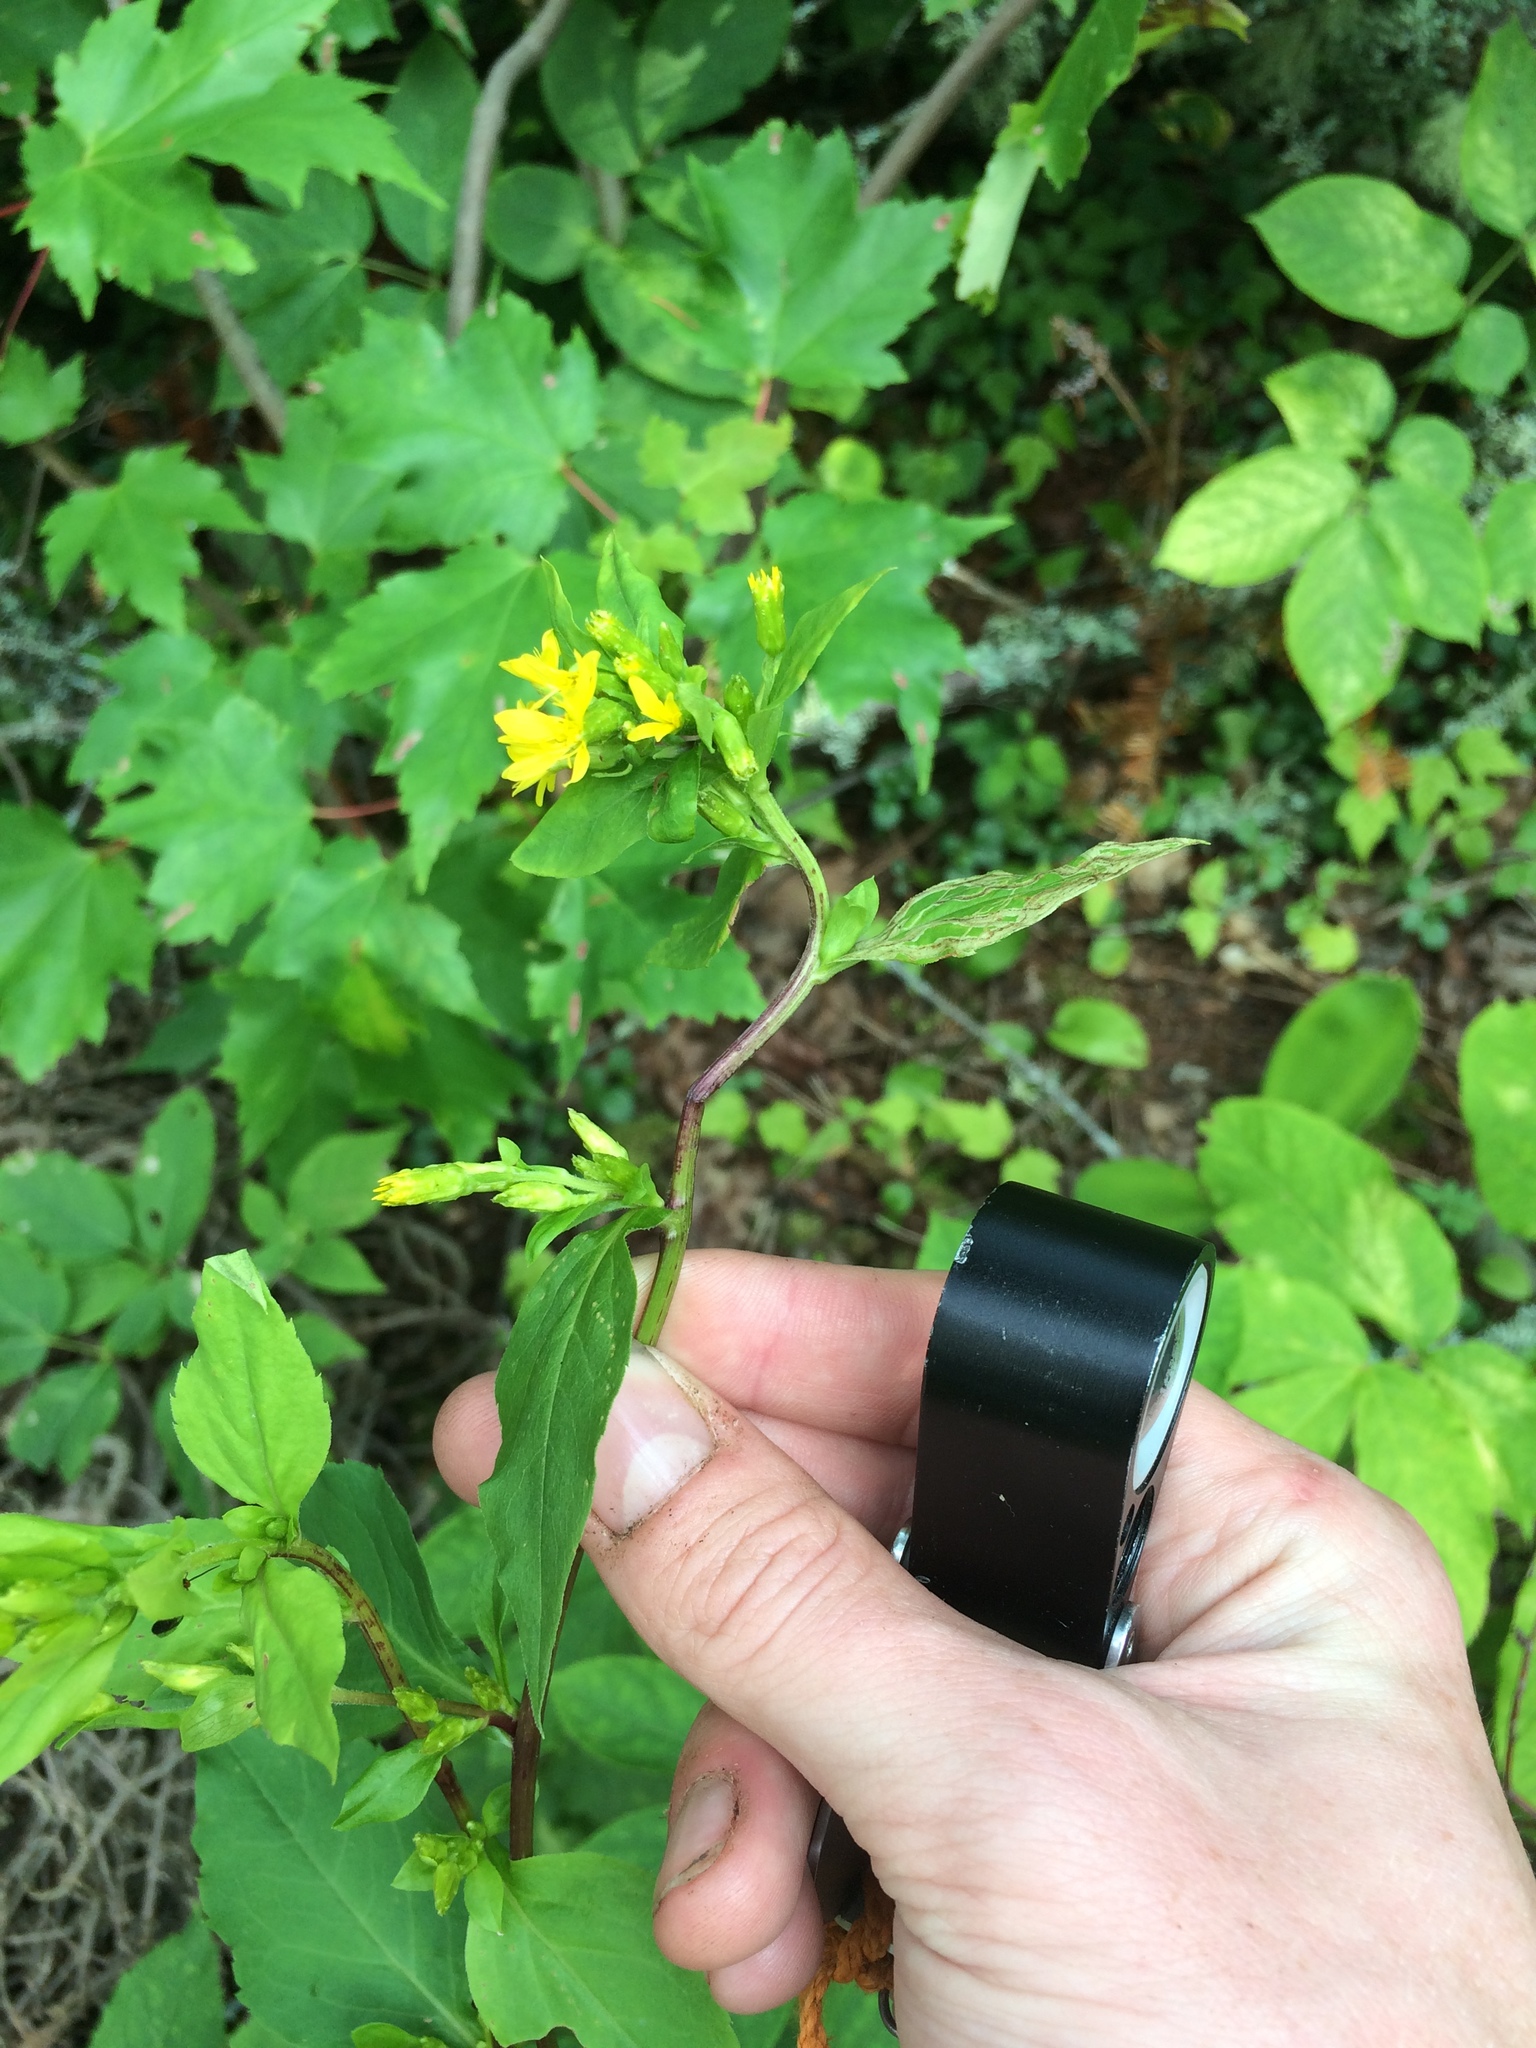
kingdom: Plantae
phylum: Tracheophyta
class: Magnoliopsida
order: Asterales
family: Asteraceae
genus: Solidago
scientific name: Solidago macrophylla
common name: Large-leaved goldenrod
